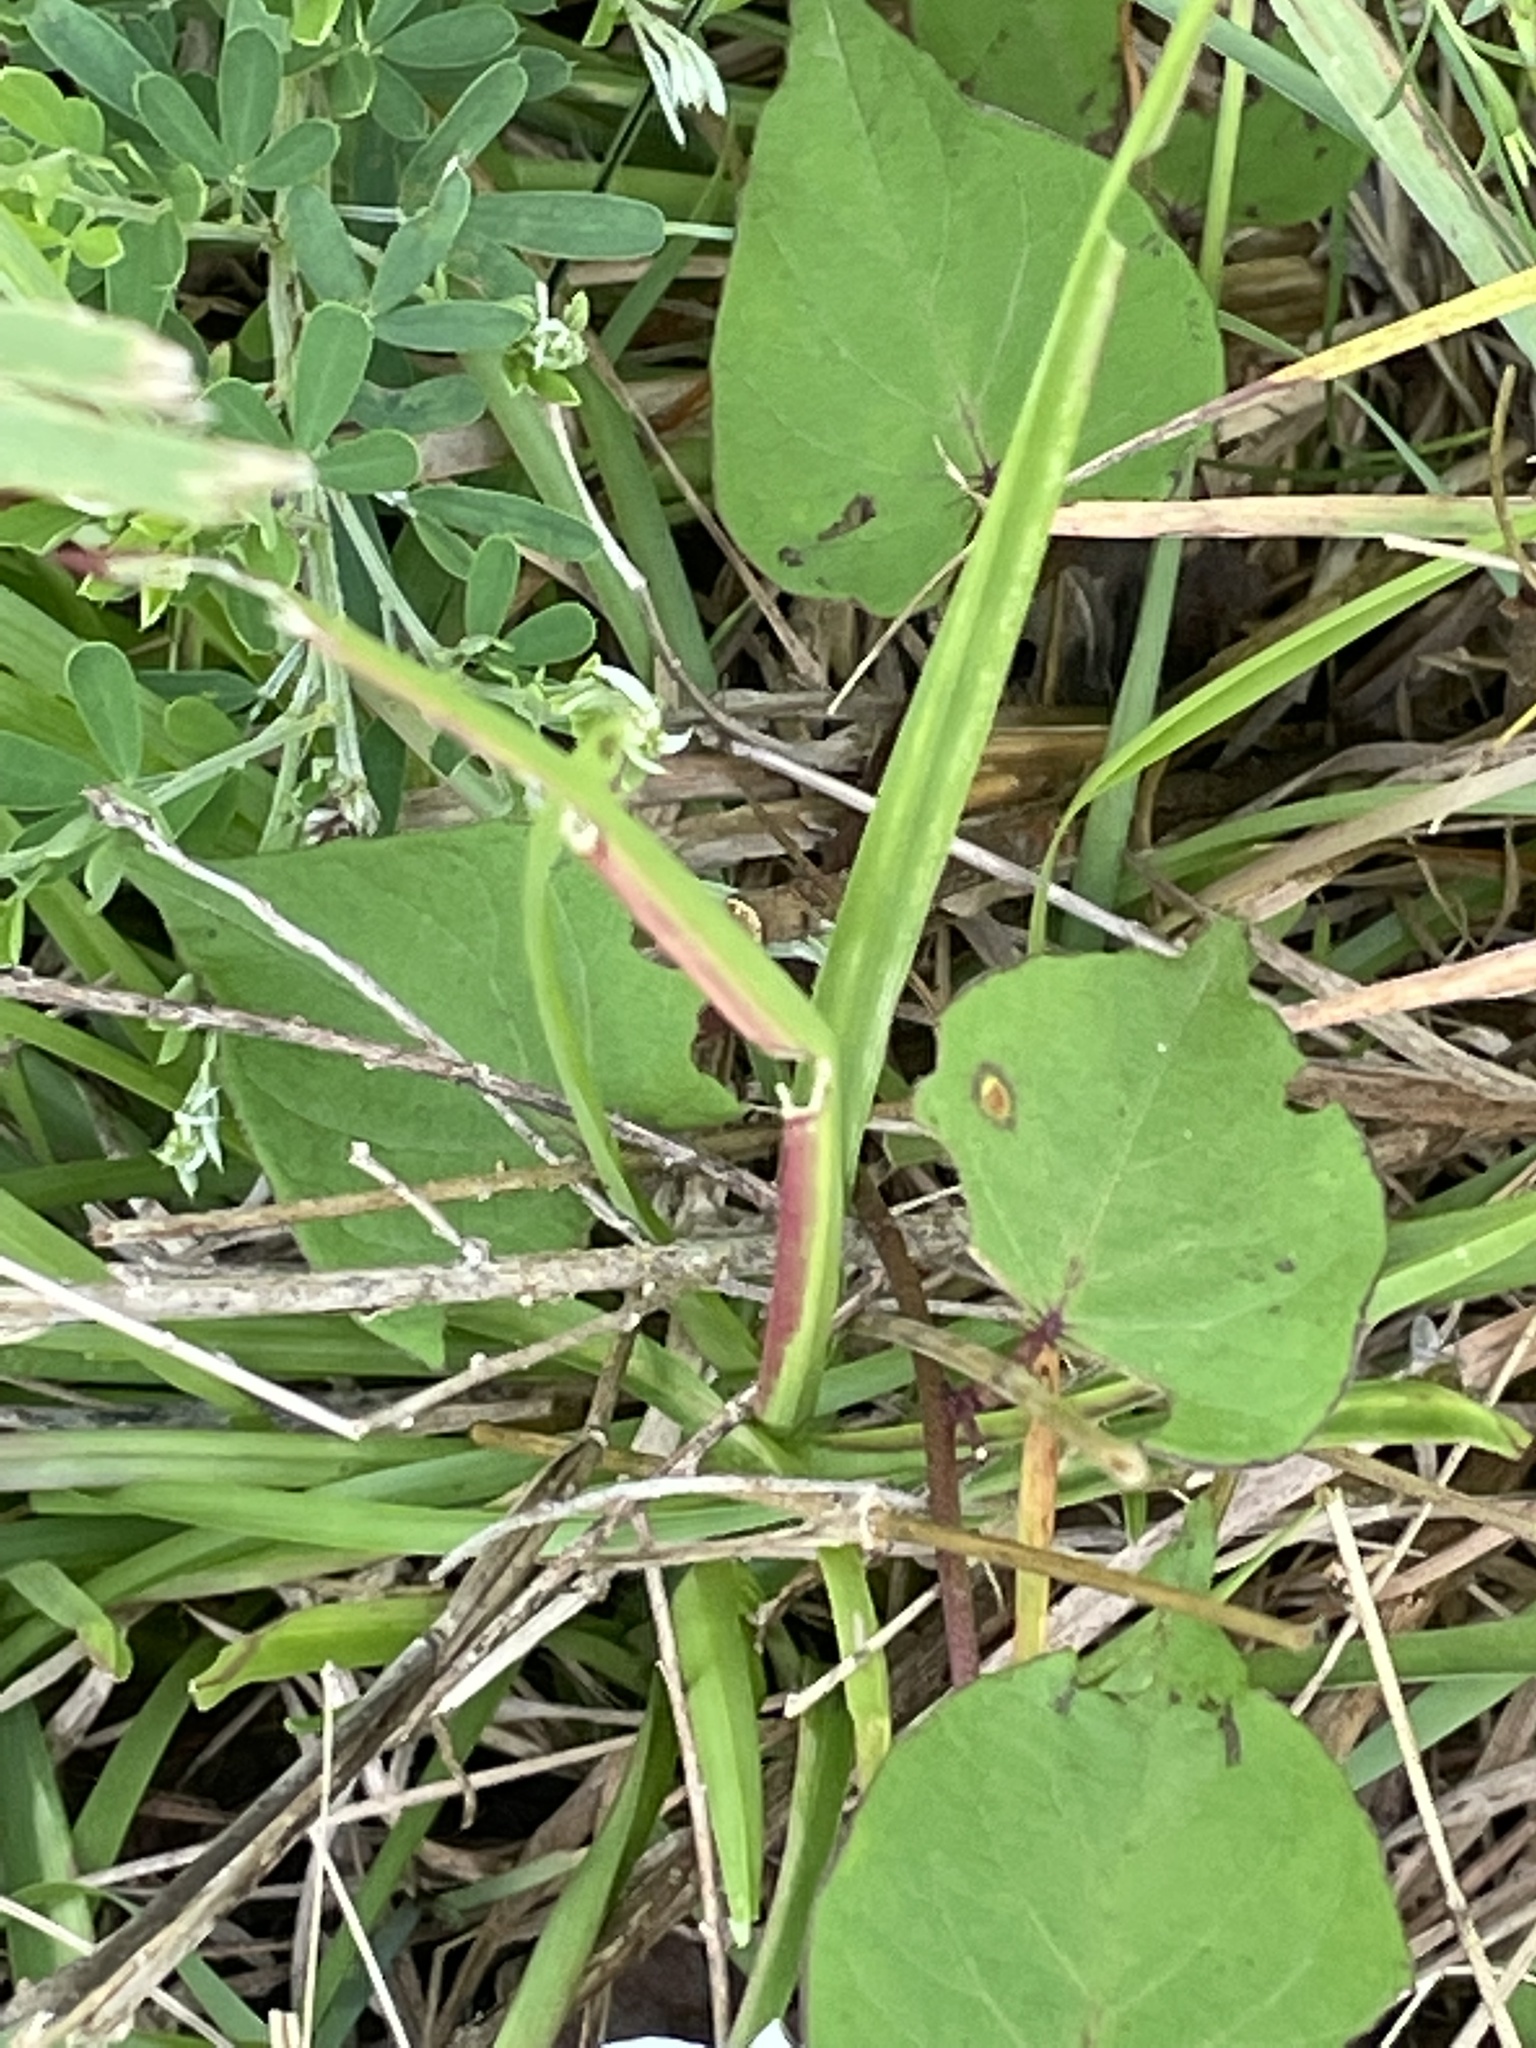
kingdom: Plantae
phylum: Tracheophyta
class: Magnoliopsida
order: Solanales
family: Convolvulaceae
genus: Ipomoea
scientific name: Ipomoea pandurata
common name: Man-of-the-earth
